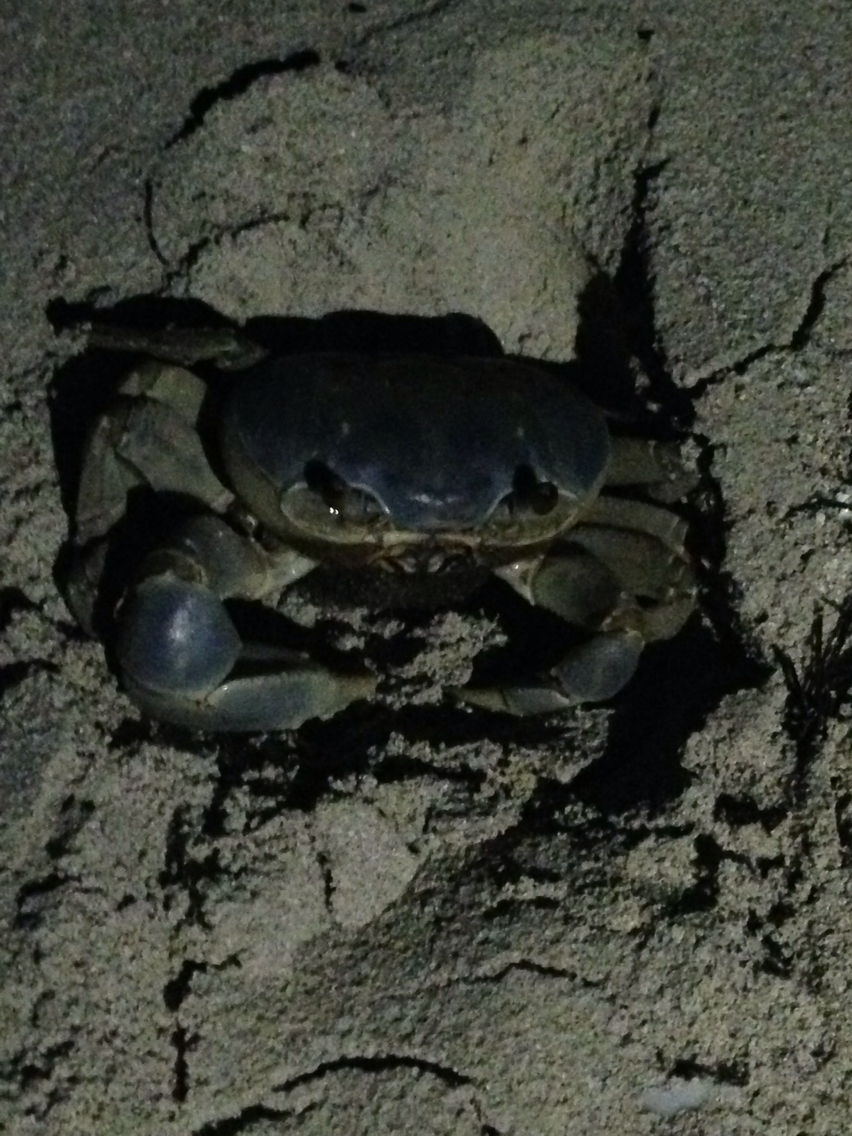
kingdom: Animalia
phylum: Arthropoda
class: Malacostraca
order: Decapoda
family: Gecarcinidae
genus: Cardisoma
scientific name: Cardisoma guanhumi
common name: Great land crab
